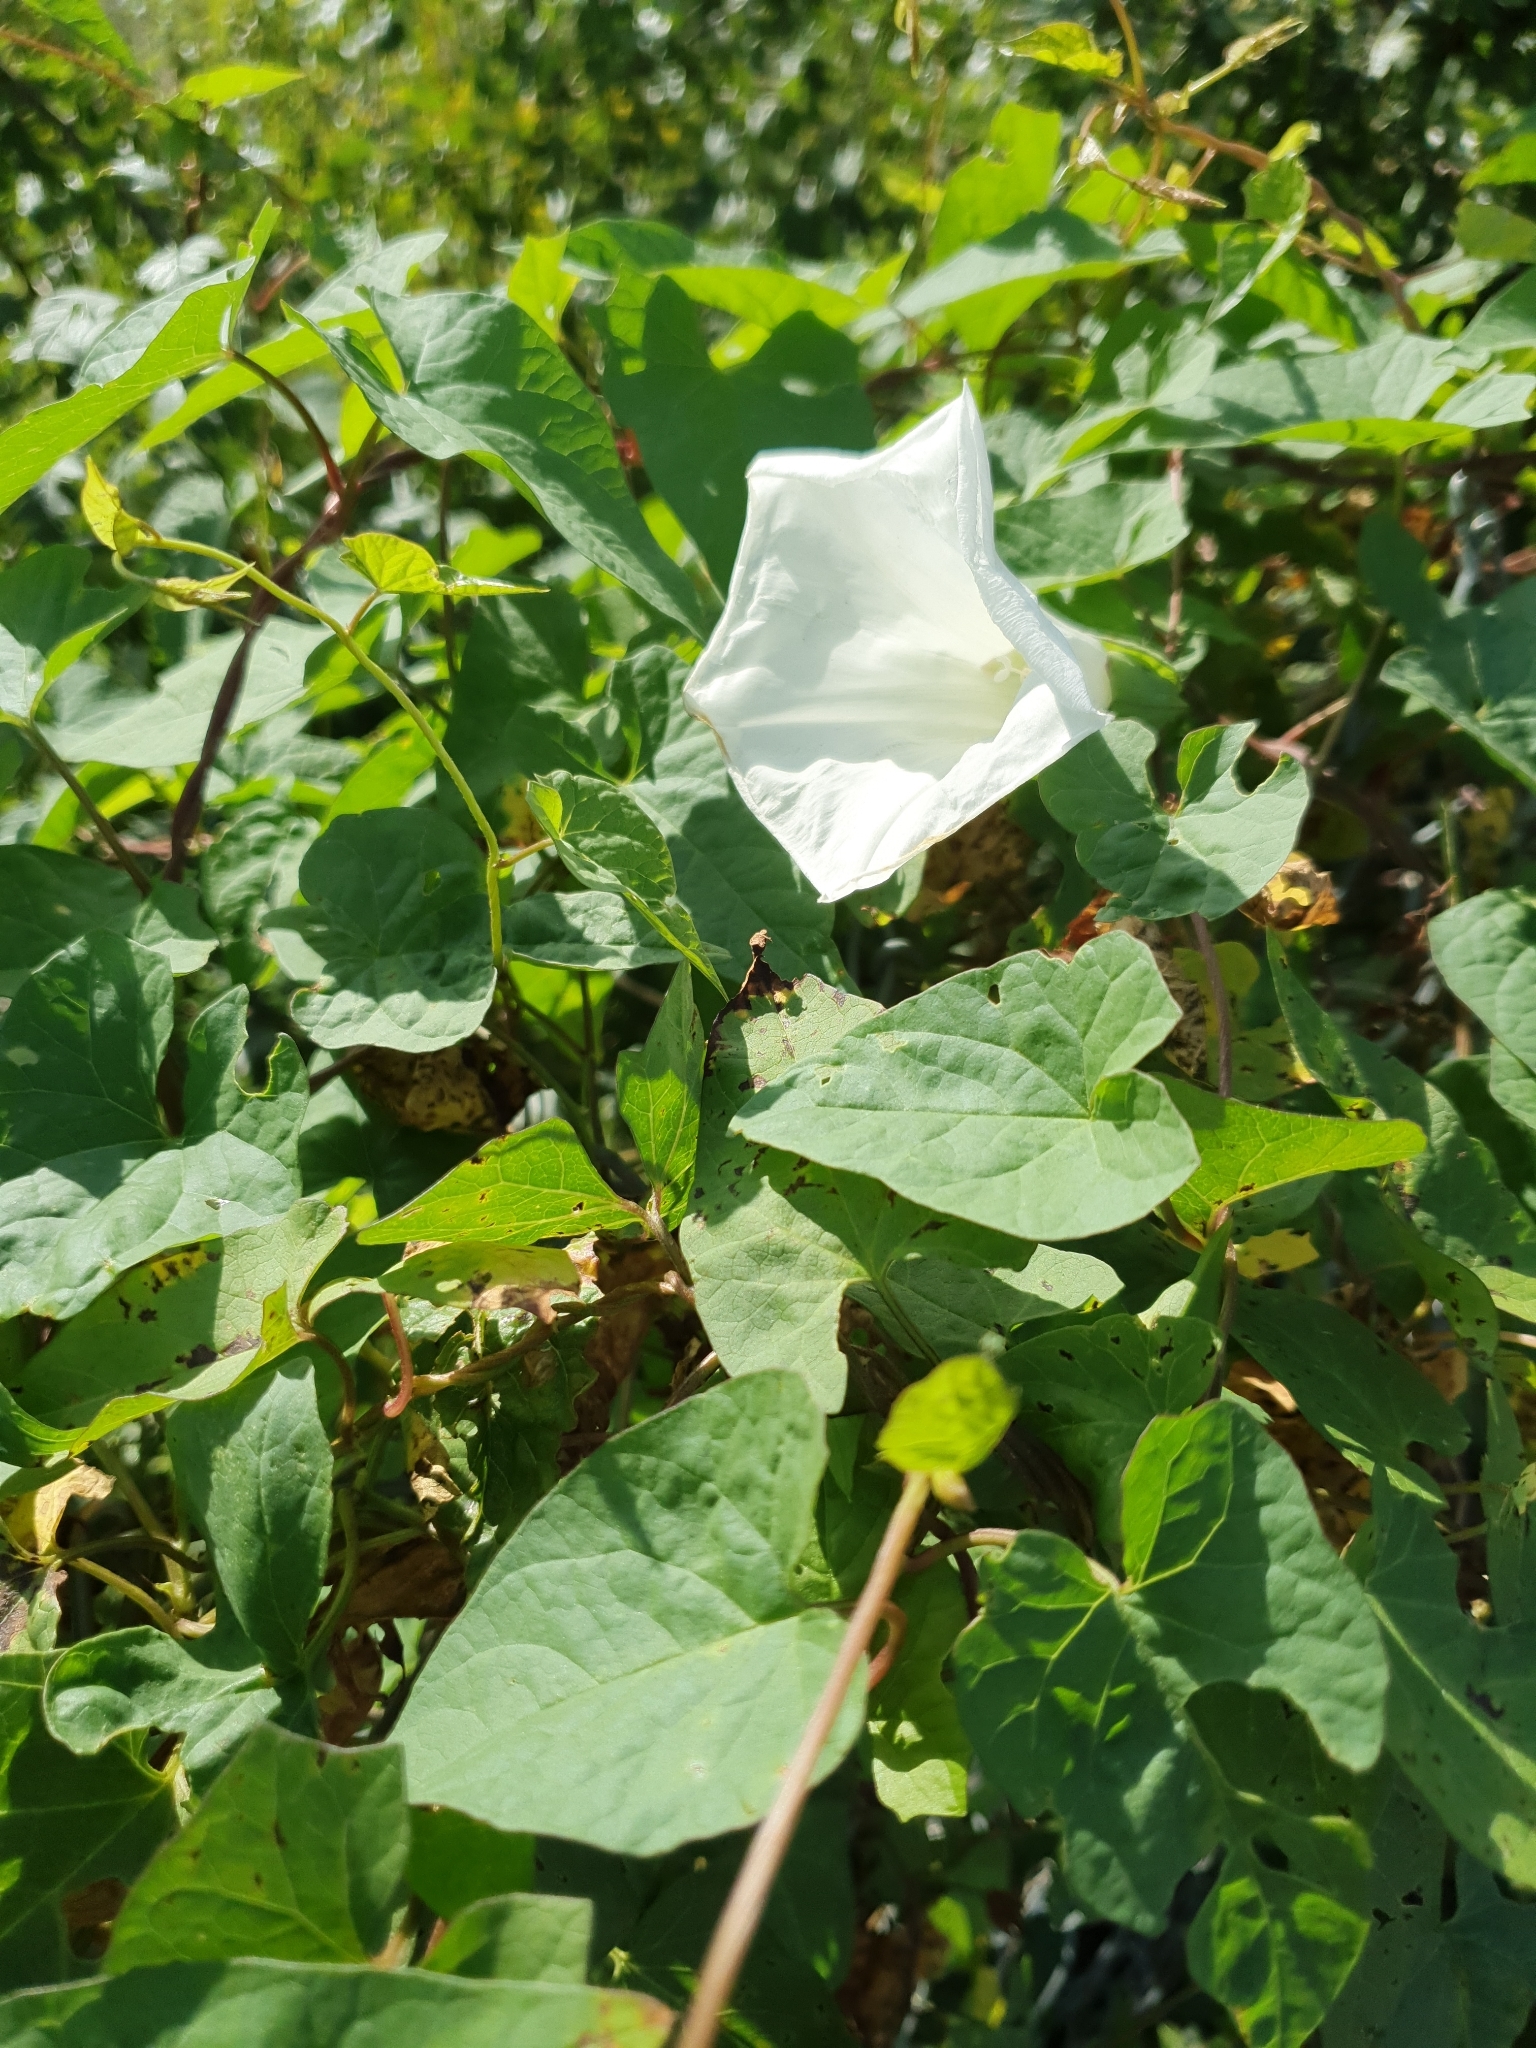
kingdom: Plantae
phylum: Tracheophyta
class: Magnoliopsida
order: Solanales
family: Convolvulaceae
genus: Calystegia
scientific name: Calystegia silvatica
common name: Large bindweed
